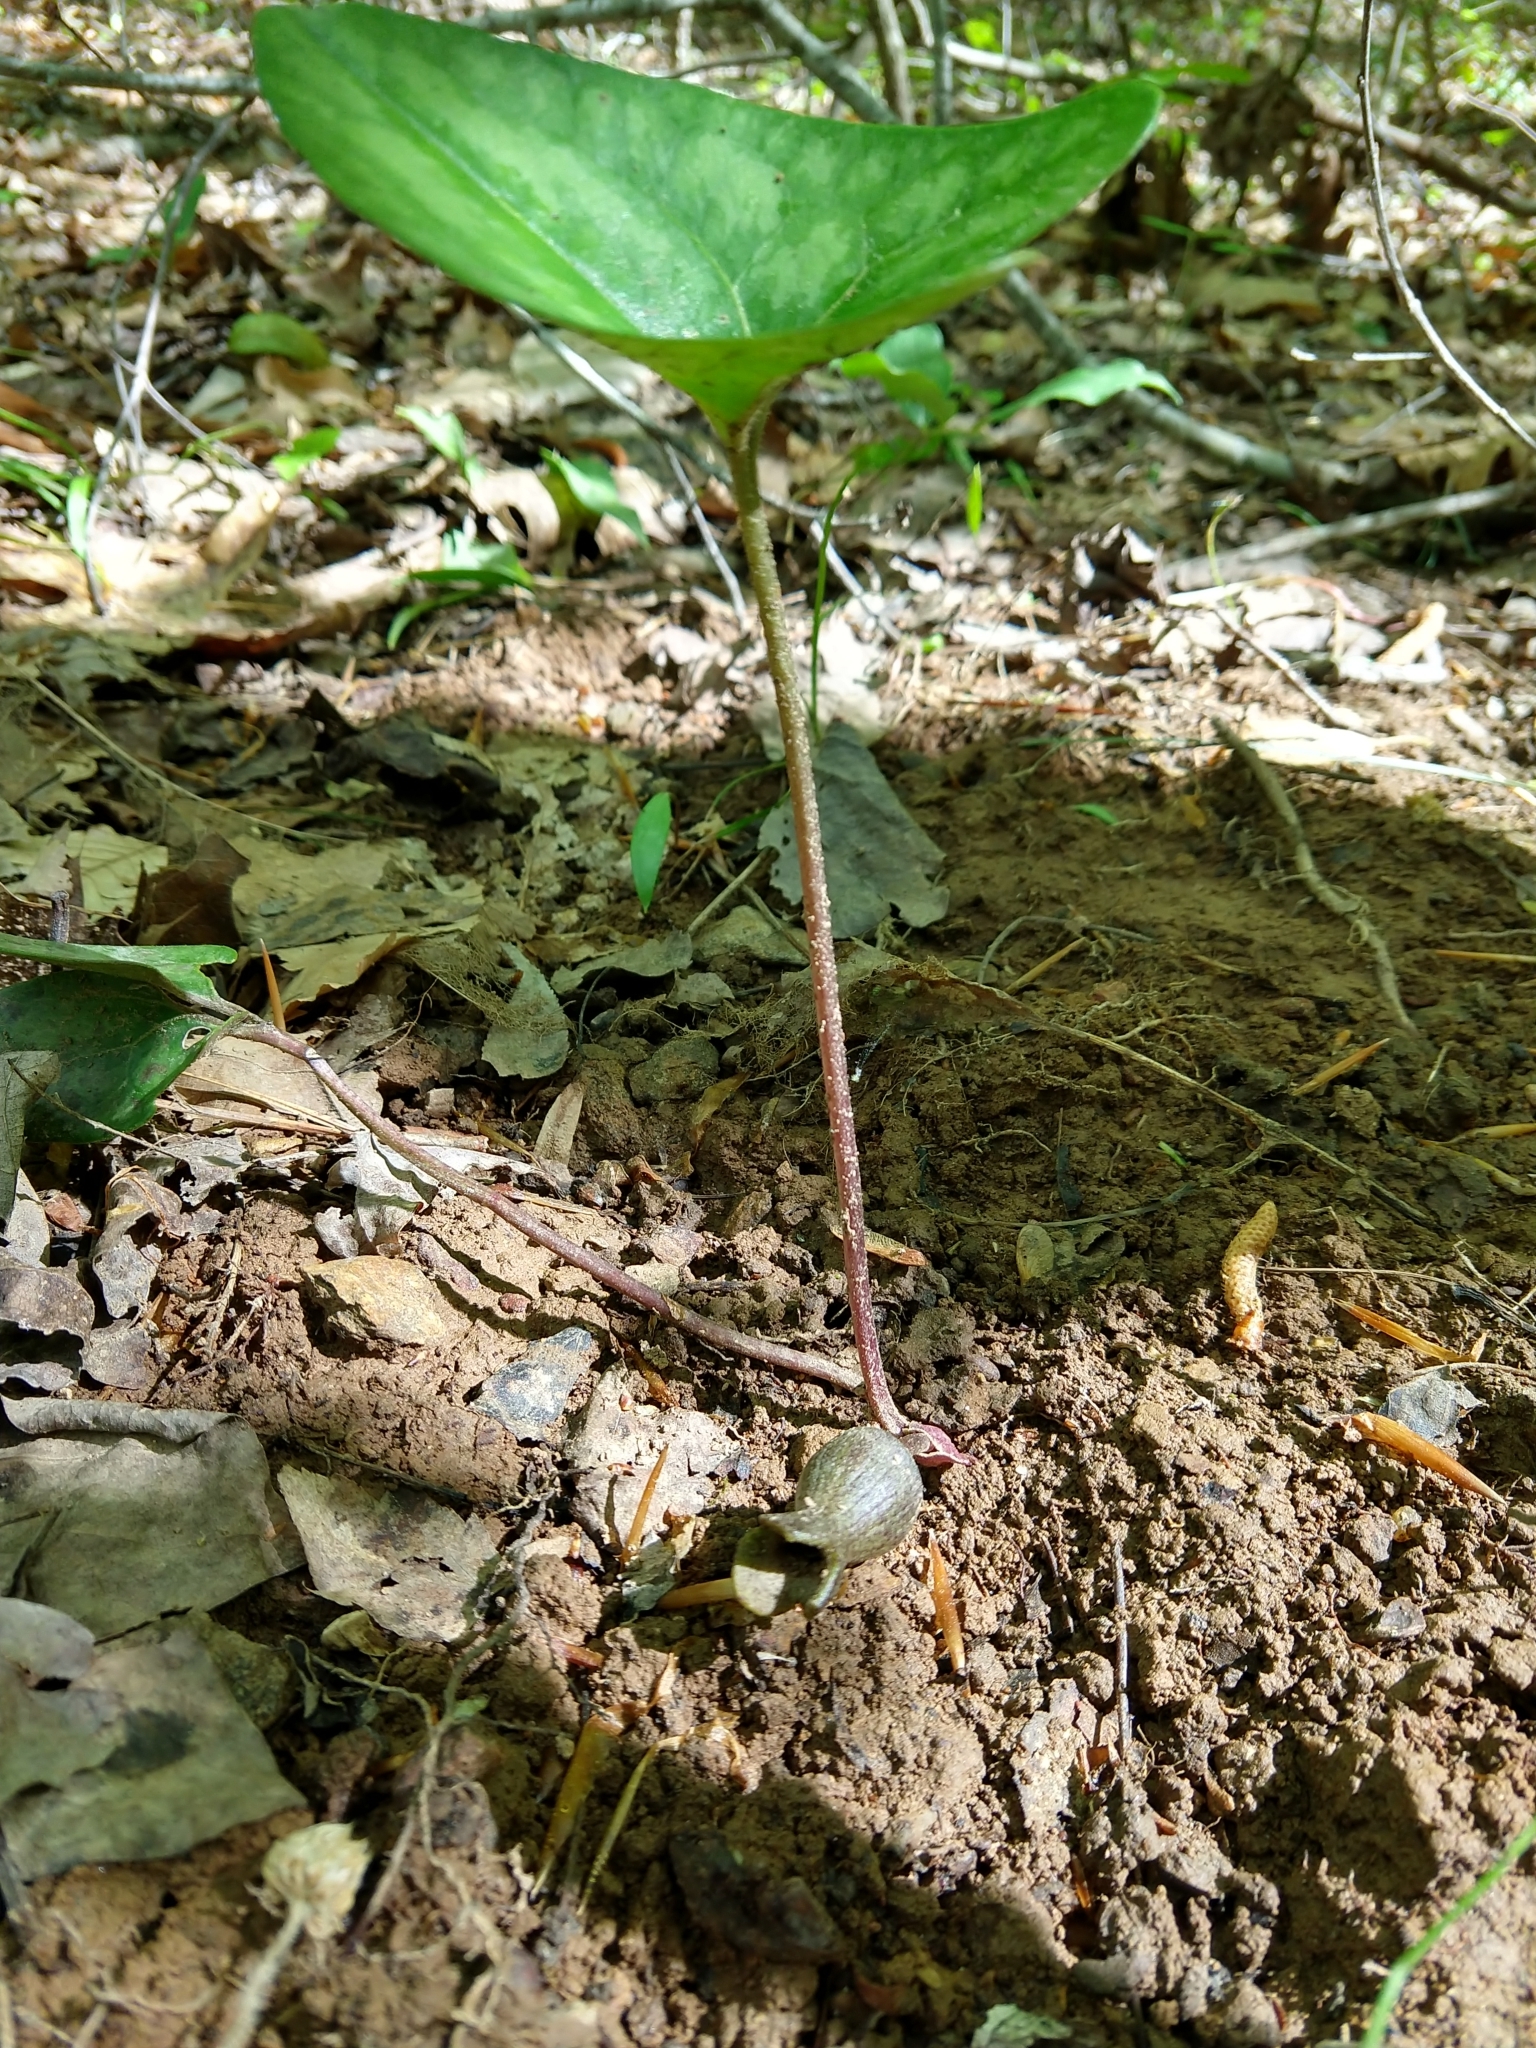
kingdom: Plantae
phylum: Tracheophyta
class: Magnoliopsida
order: Piperales
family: Aristolochiaceae
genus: Hexastylis
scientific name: Hexastylis arifolia
